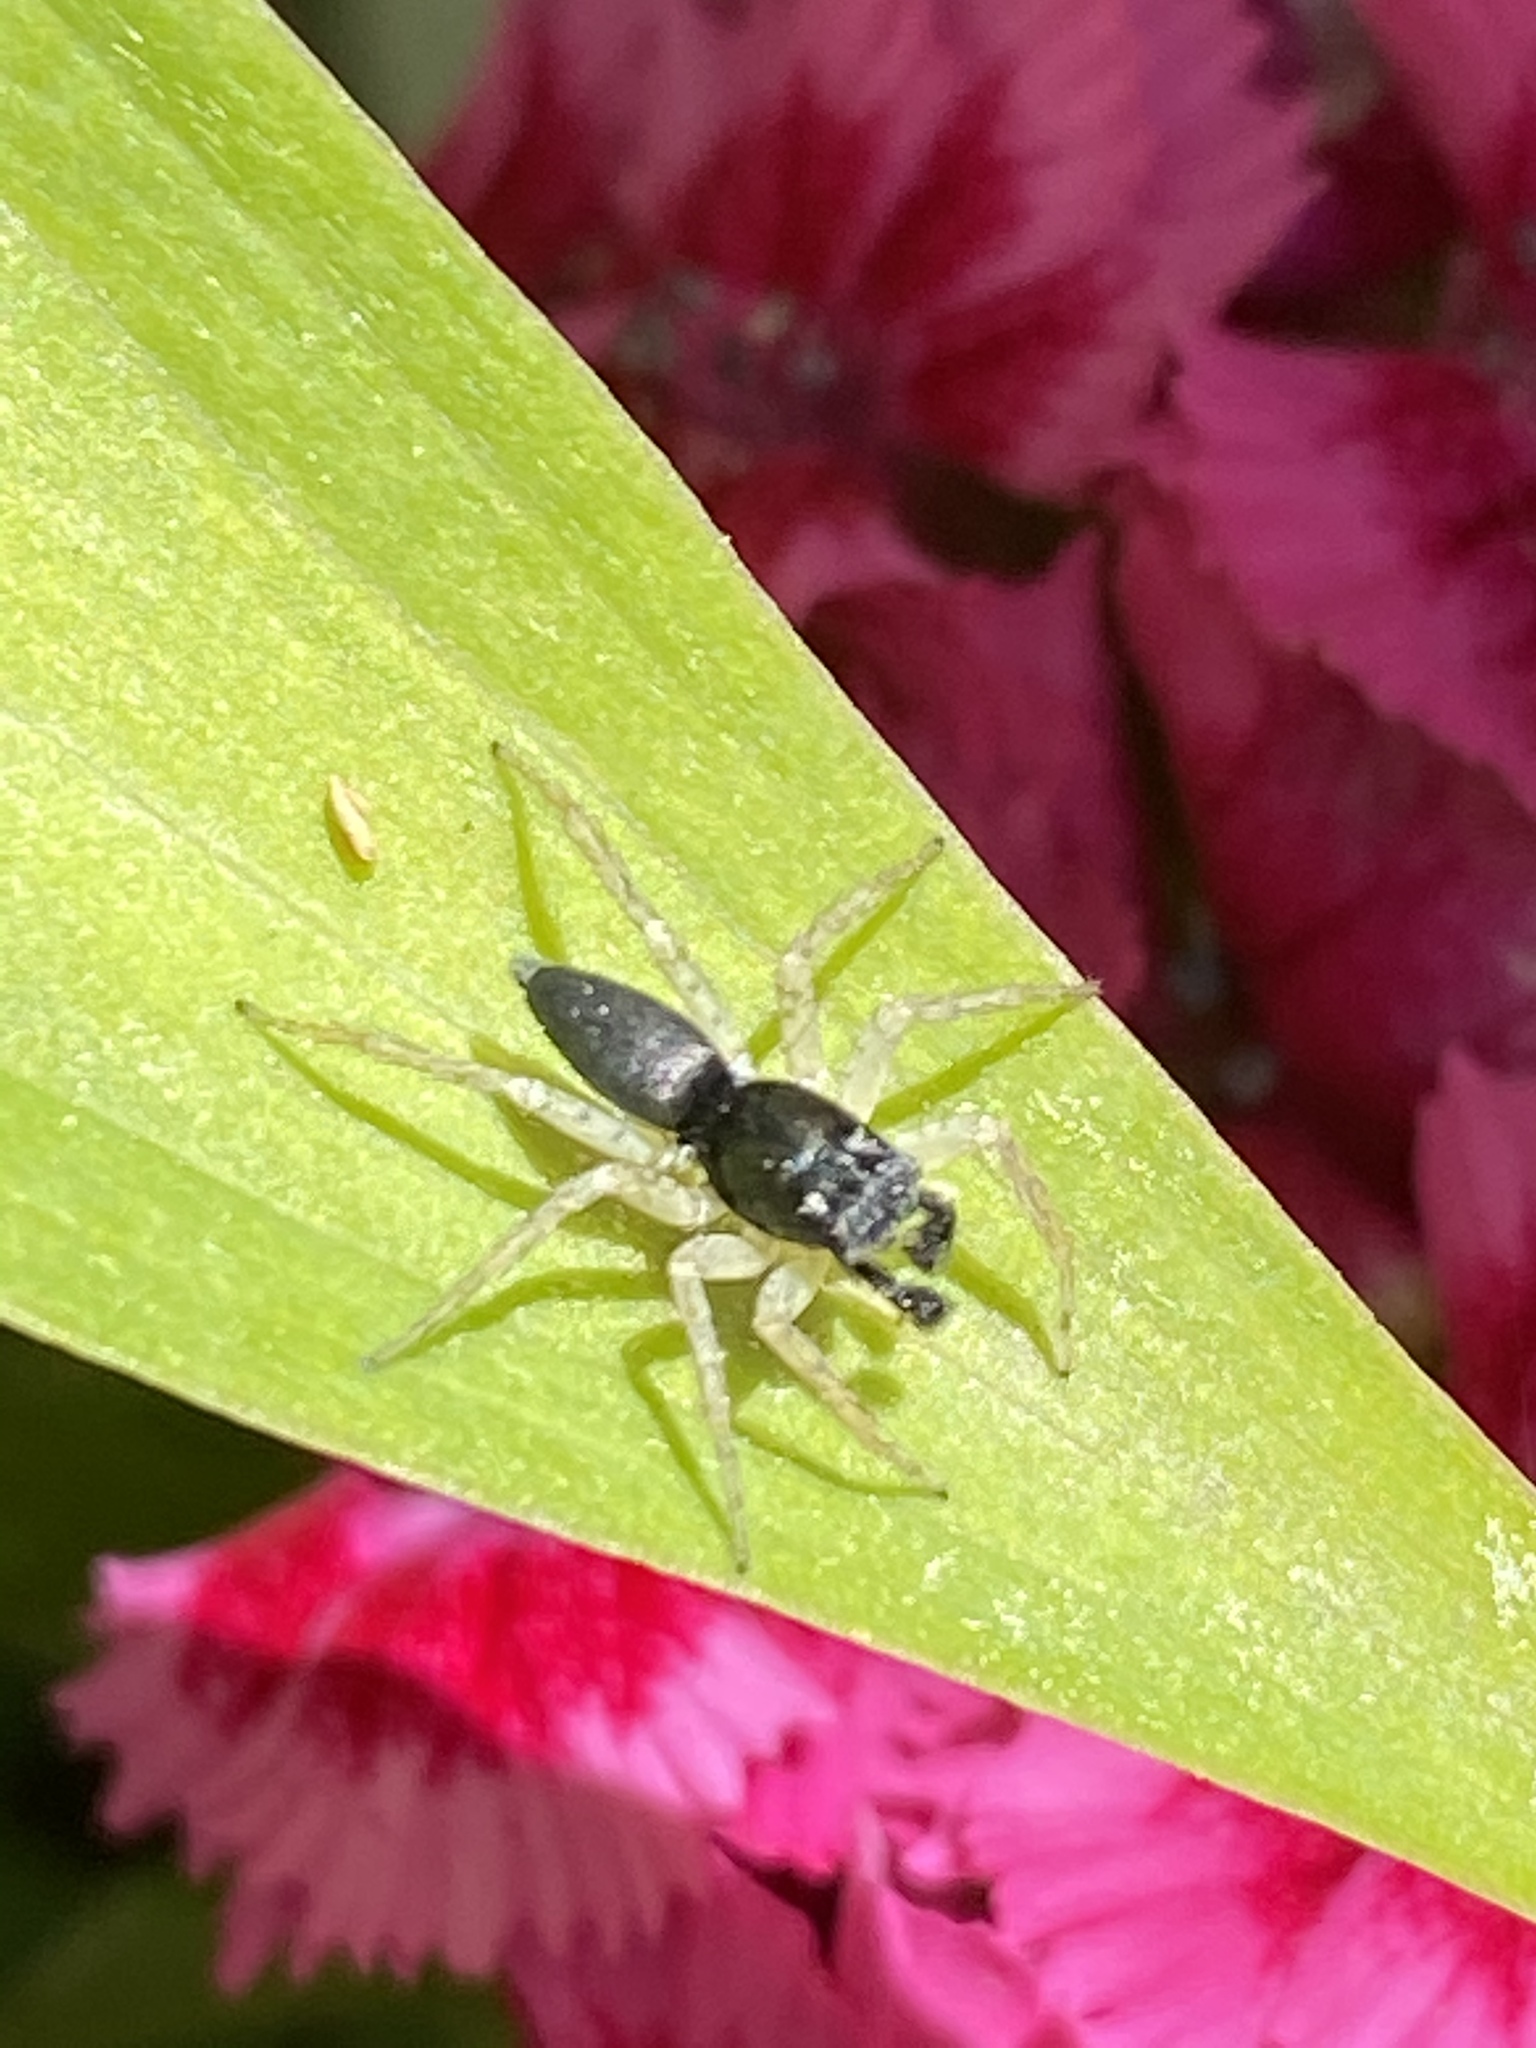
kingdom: Animalia
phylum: Arthropoda
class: Arachnida
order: Araneae
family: Salticidae
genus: Maevia
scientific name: Maevia inclemens
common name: Dimorphic jumper
